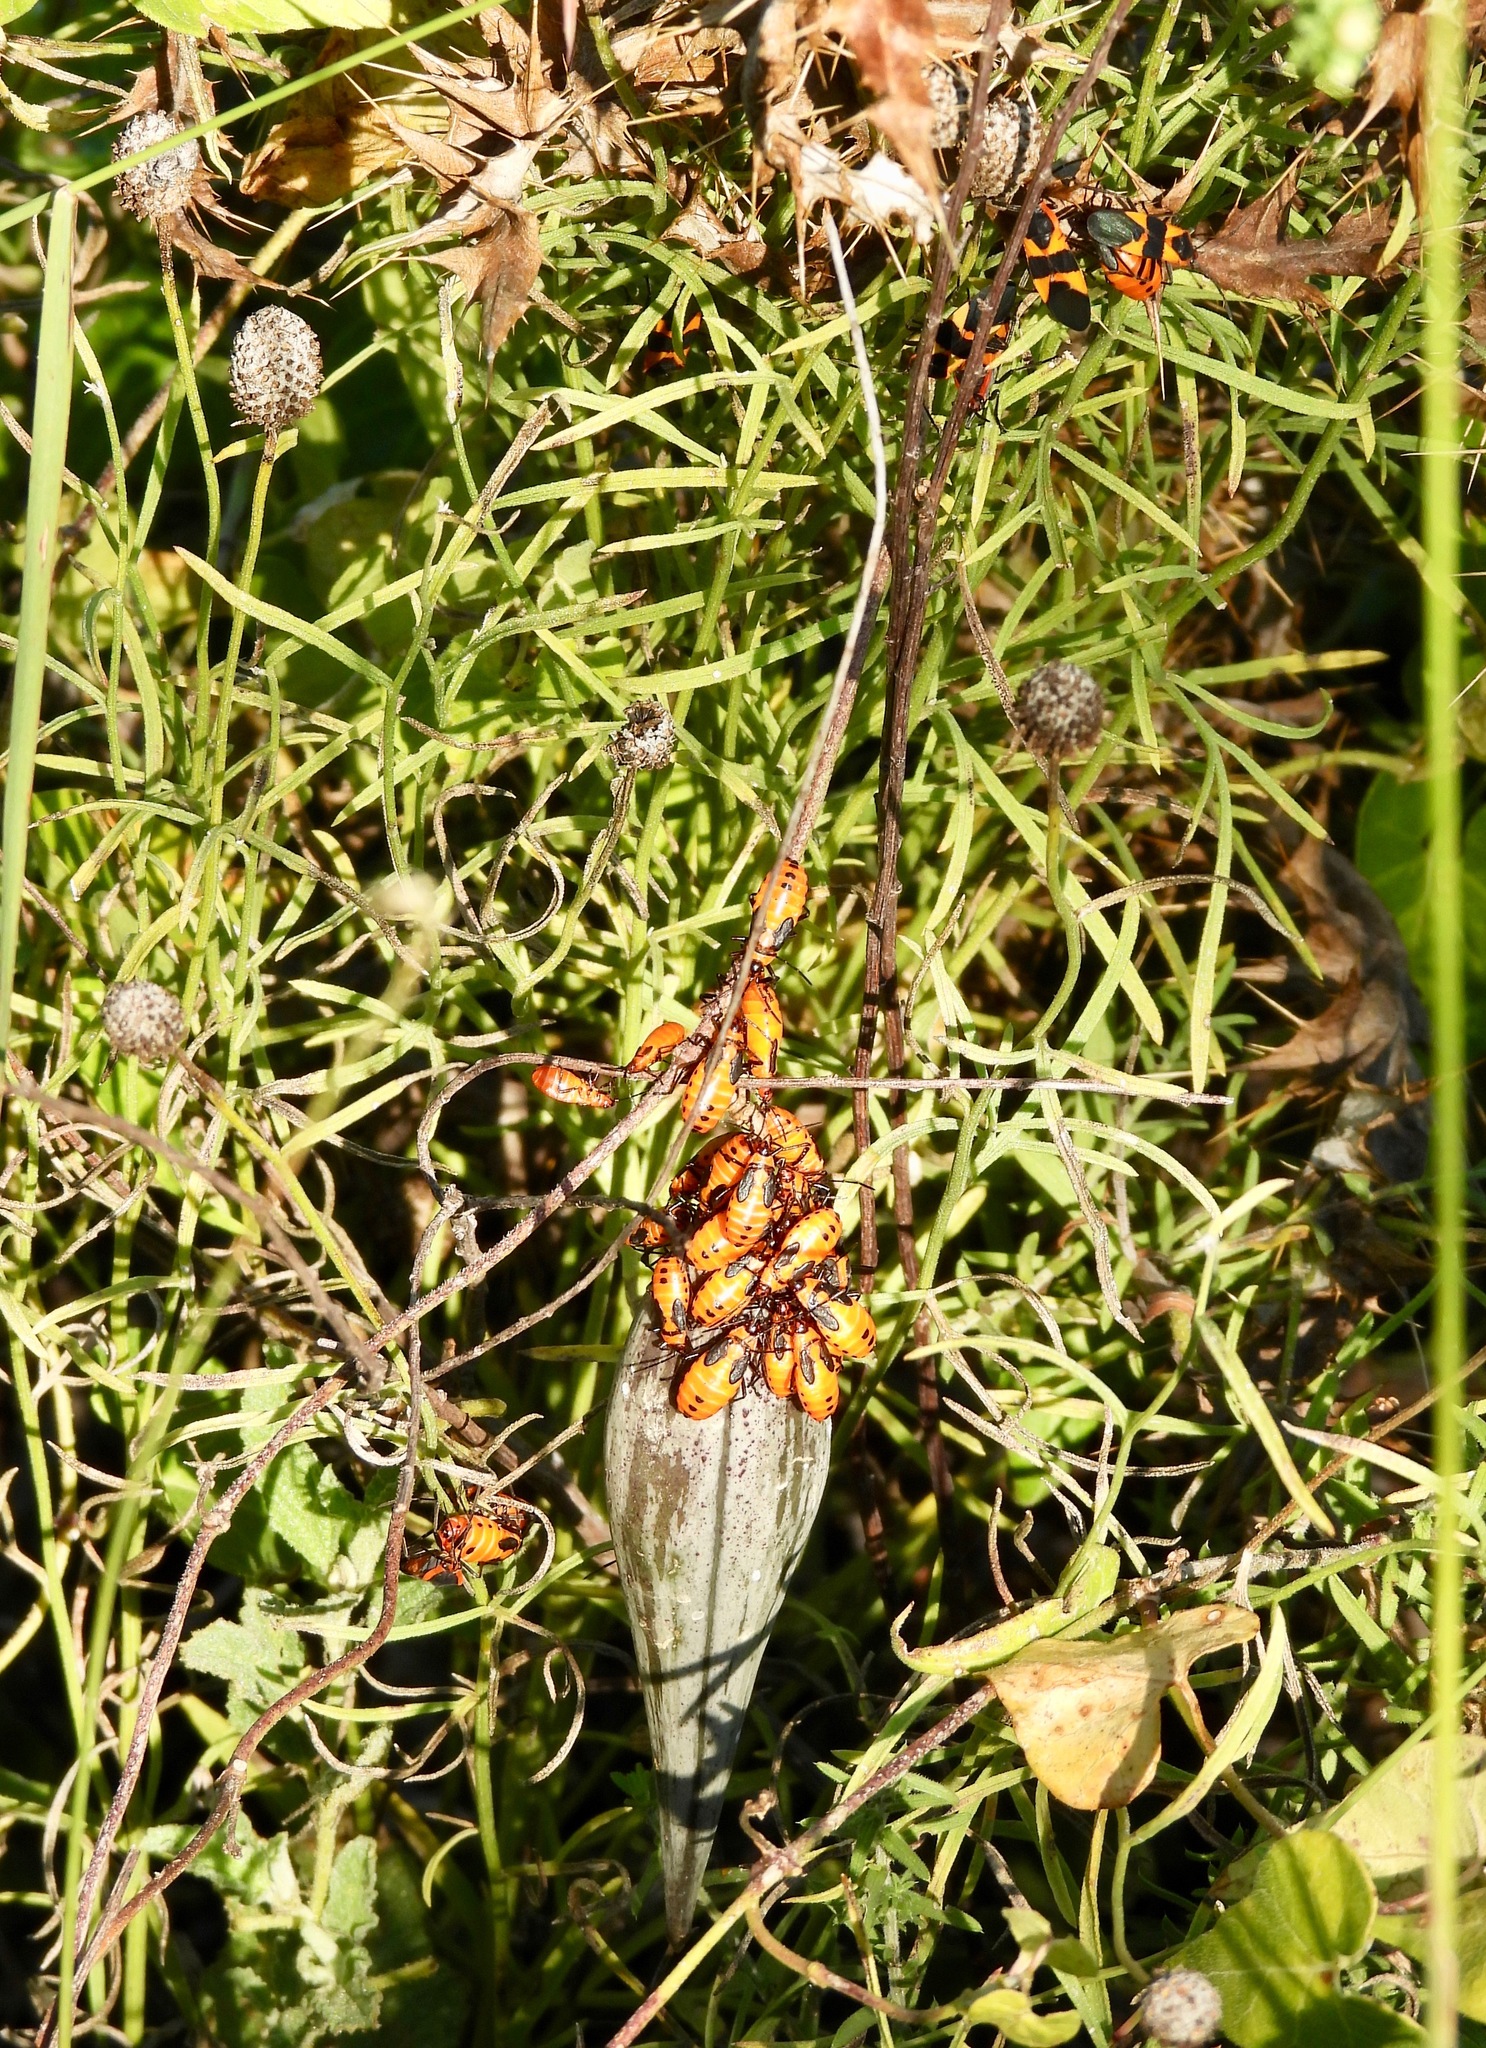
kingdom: Animalia
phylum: Arthropoda
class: Insecta
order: Hemiptera
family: Lygaeidae
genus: Oncopeltus
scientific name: Oncopeltus fasciatus
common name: Large milkweed bug
